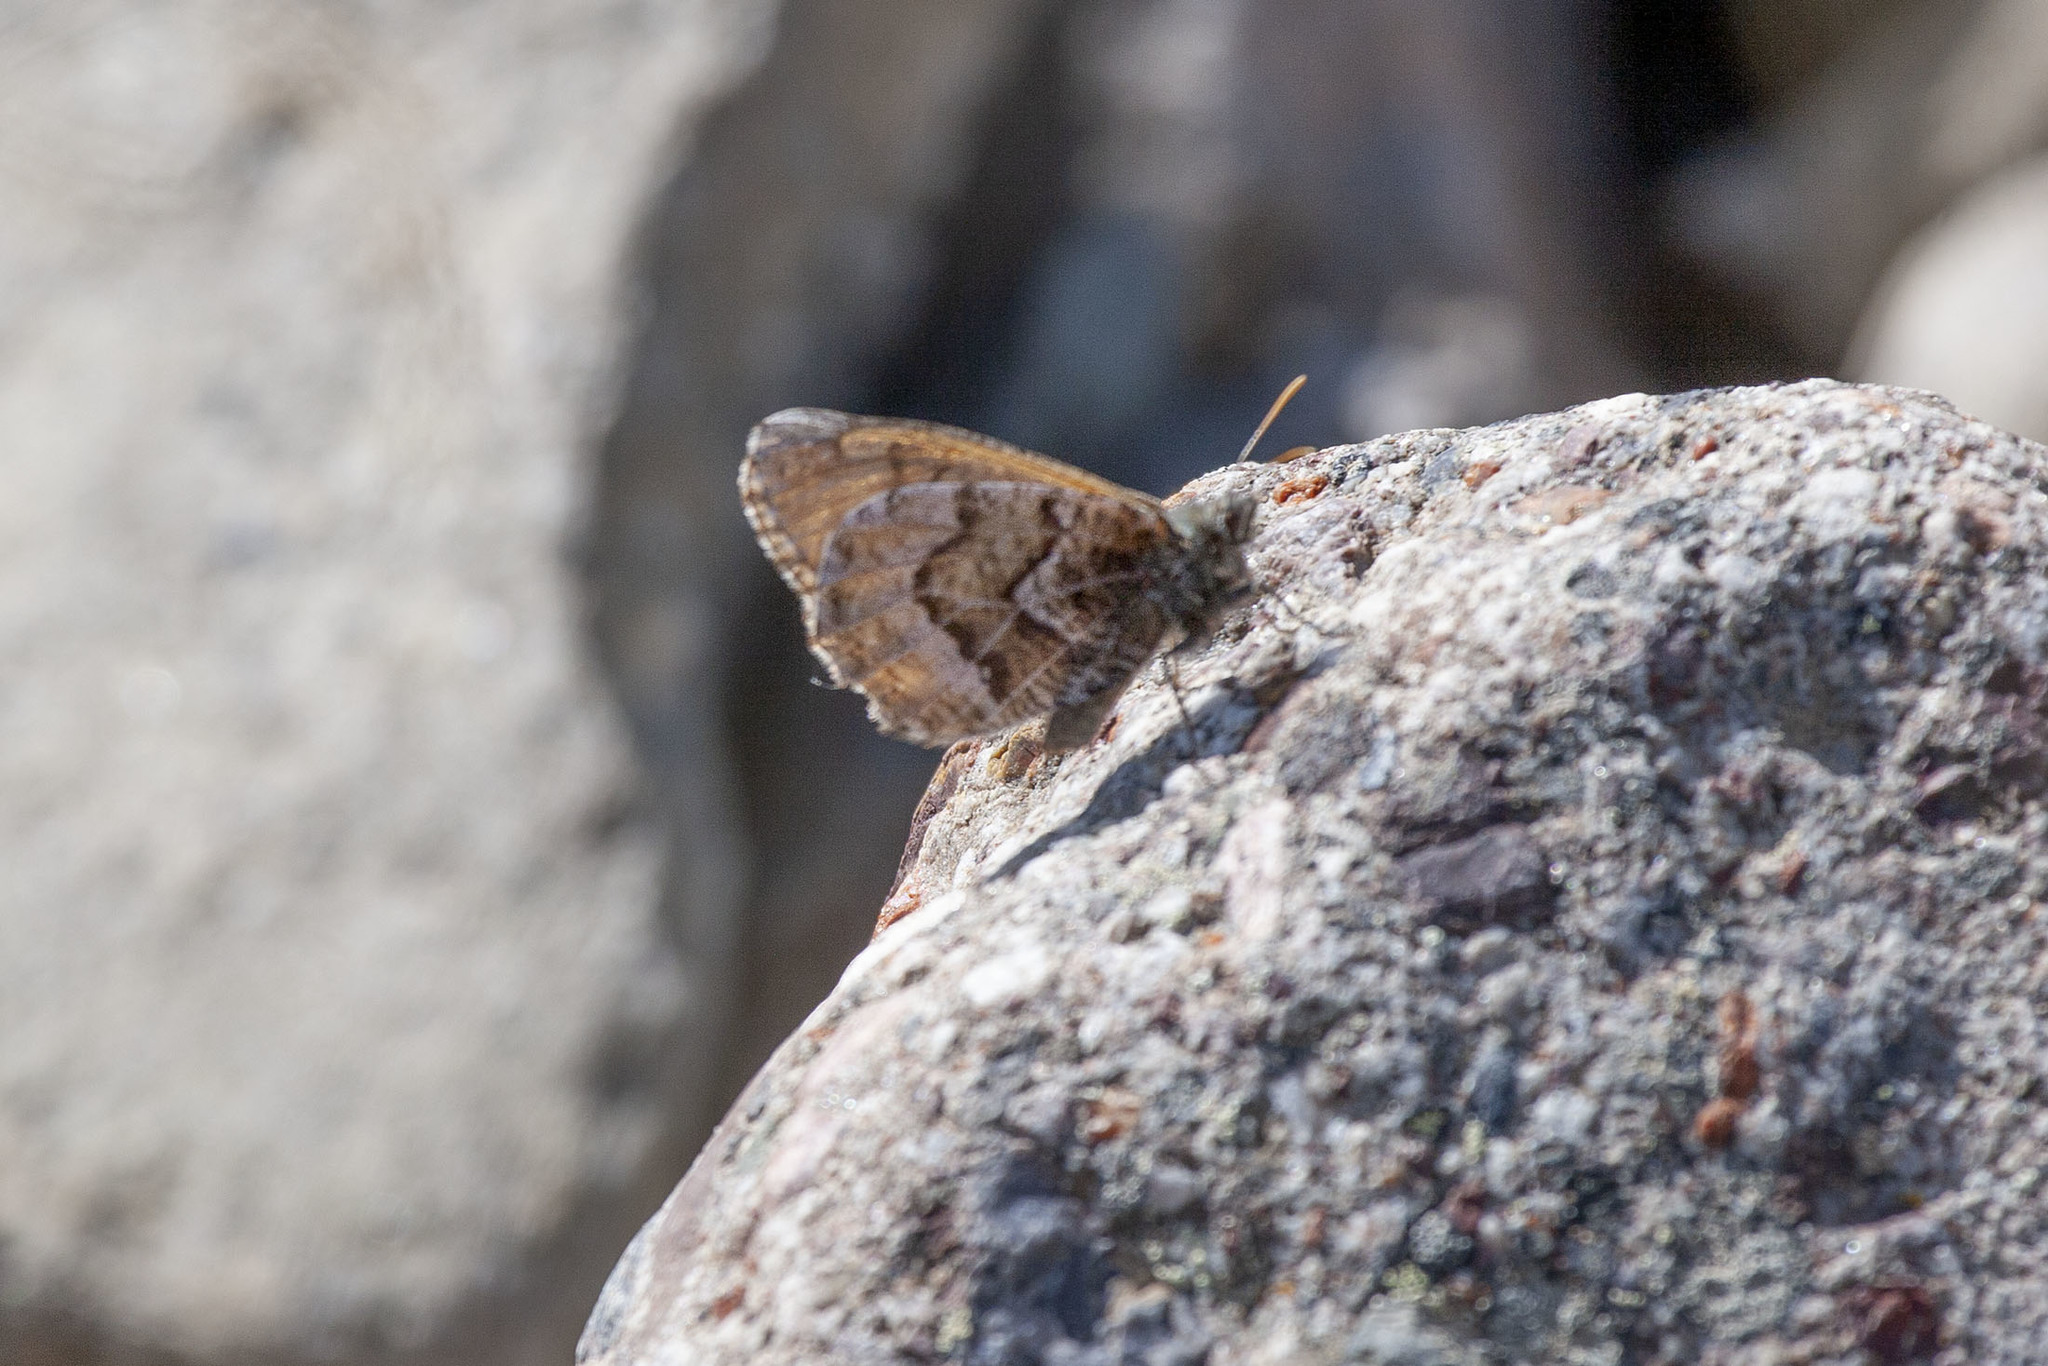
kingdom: Animalia
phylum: Arthropoda
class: Insecta
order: Lepidoptera
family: Nymphalidae
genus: Oeneis
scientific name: Oeneis bore
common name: Arctic grayling
